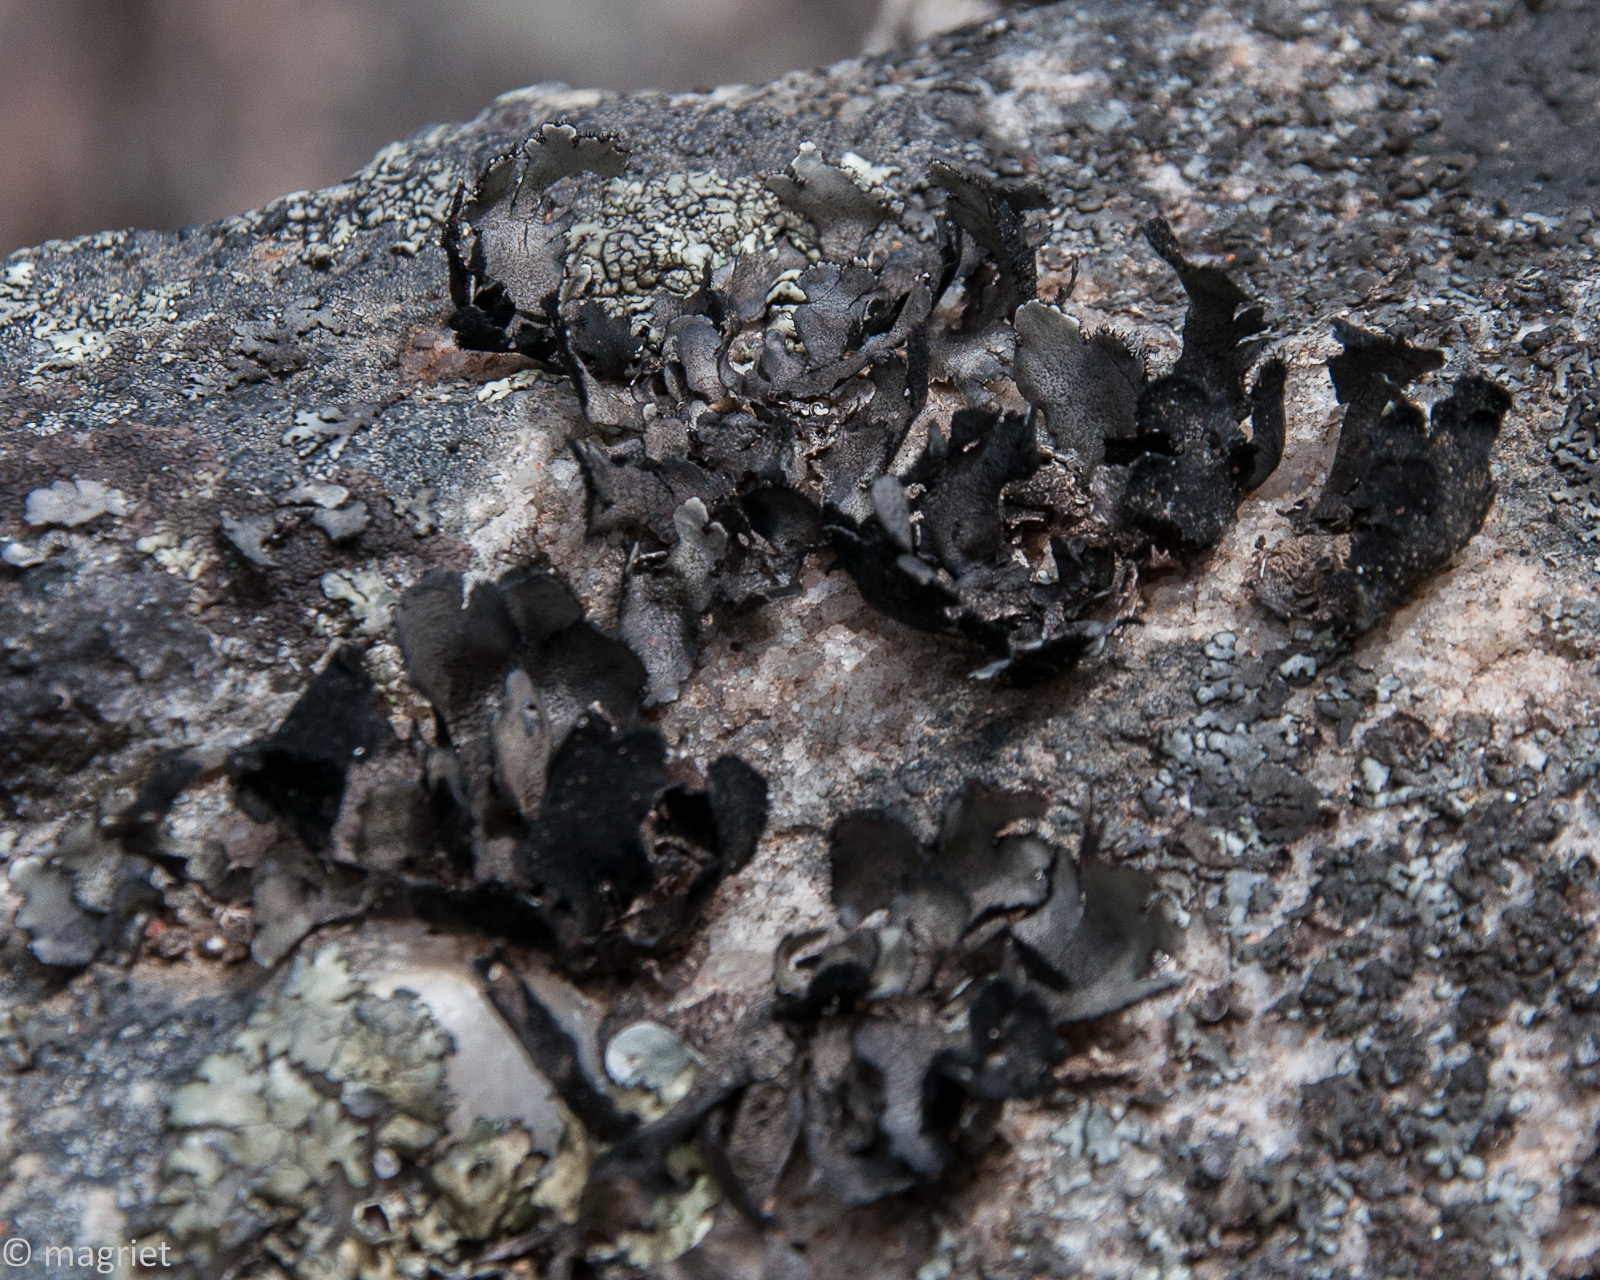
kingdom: Fungi
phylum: Ascomycota
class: Lecanoromycetes
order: Lecanorales
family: Parmeliaceae
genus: Xanthoparmelia
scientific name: Xanthoparmelia hottentotta
